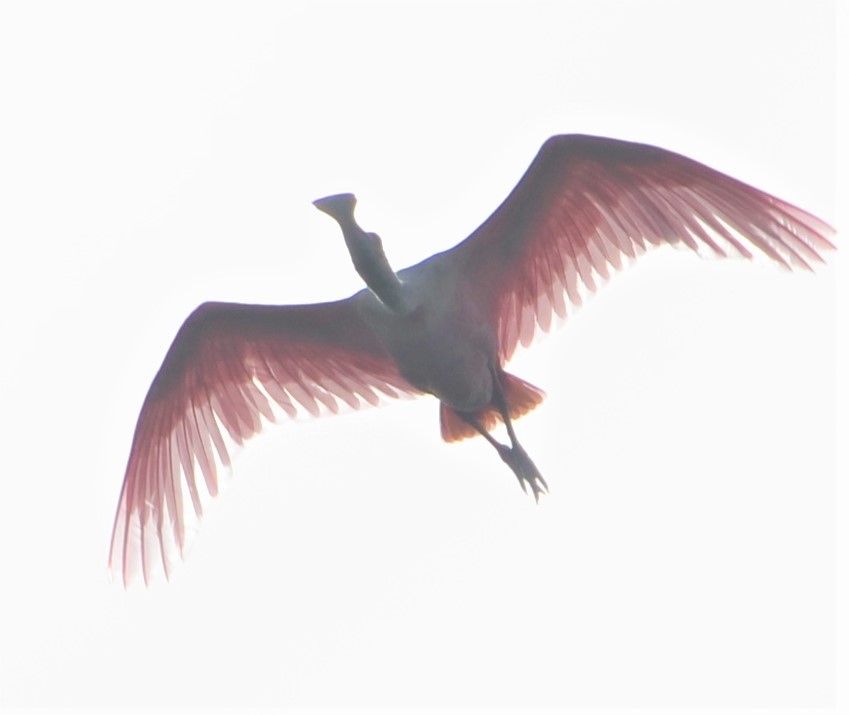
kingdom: Animalia
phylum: Chordata
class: Aves
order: Pelecaniformes
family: Threskiornithidae
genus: Platalea
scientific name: Platalea ajaja
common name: Roseate spoonbill
